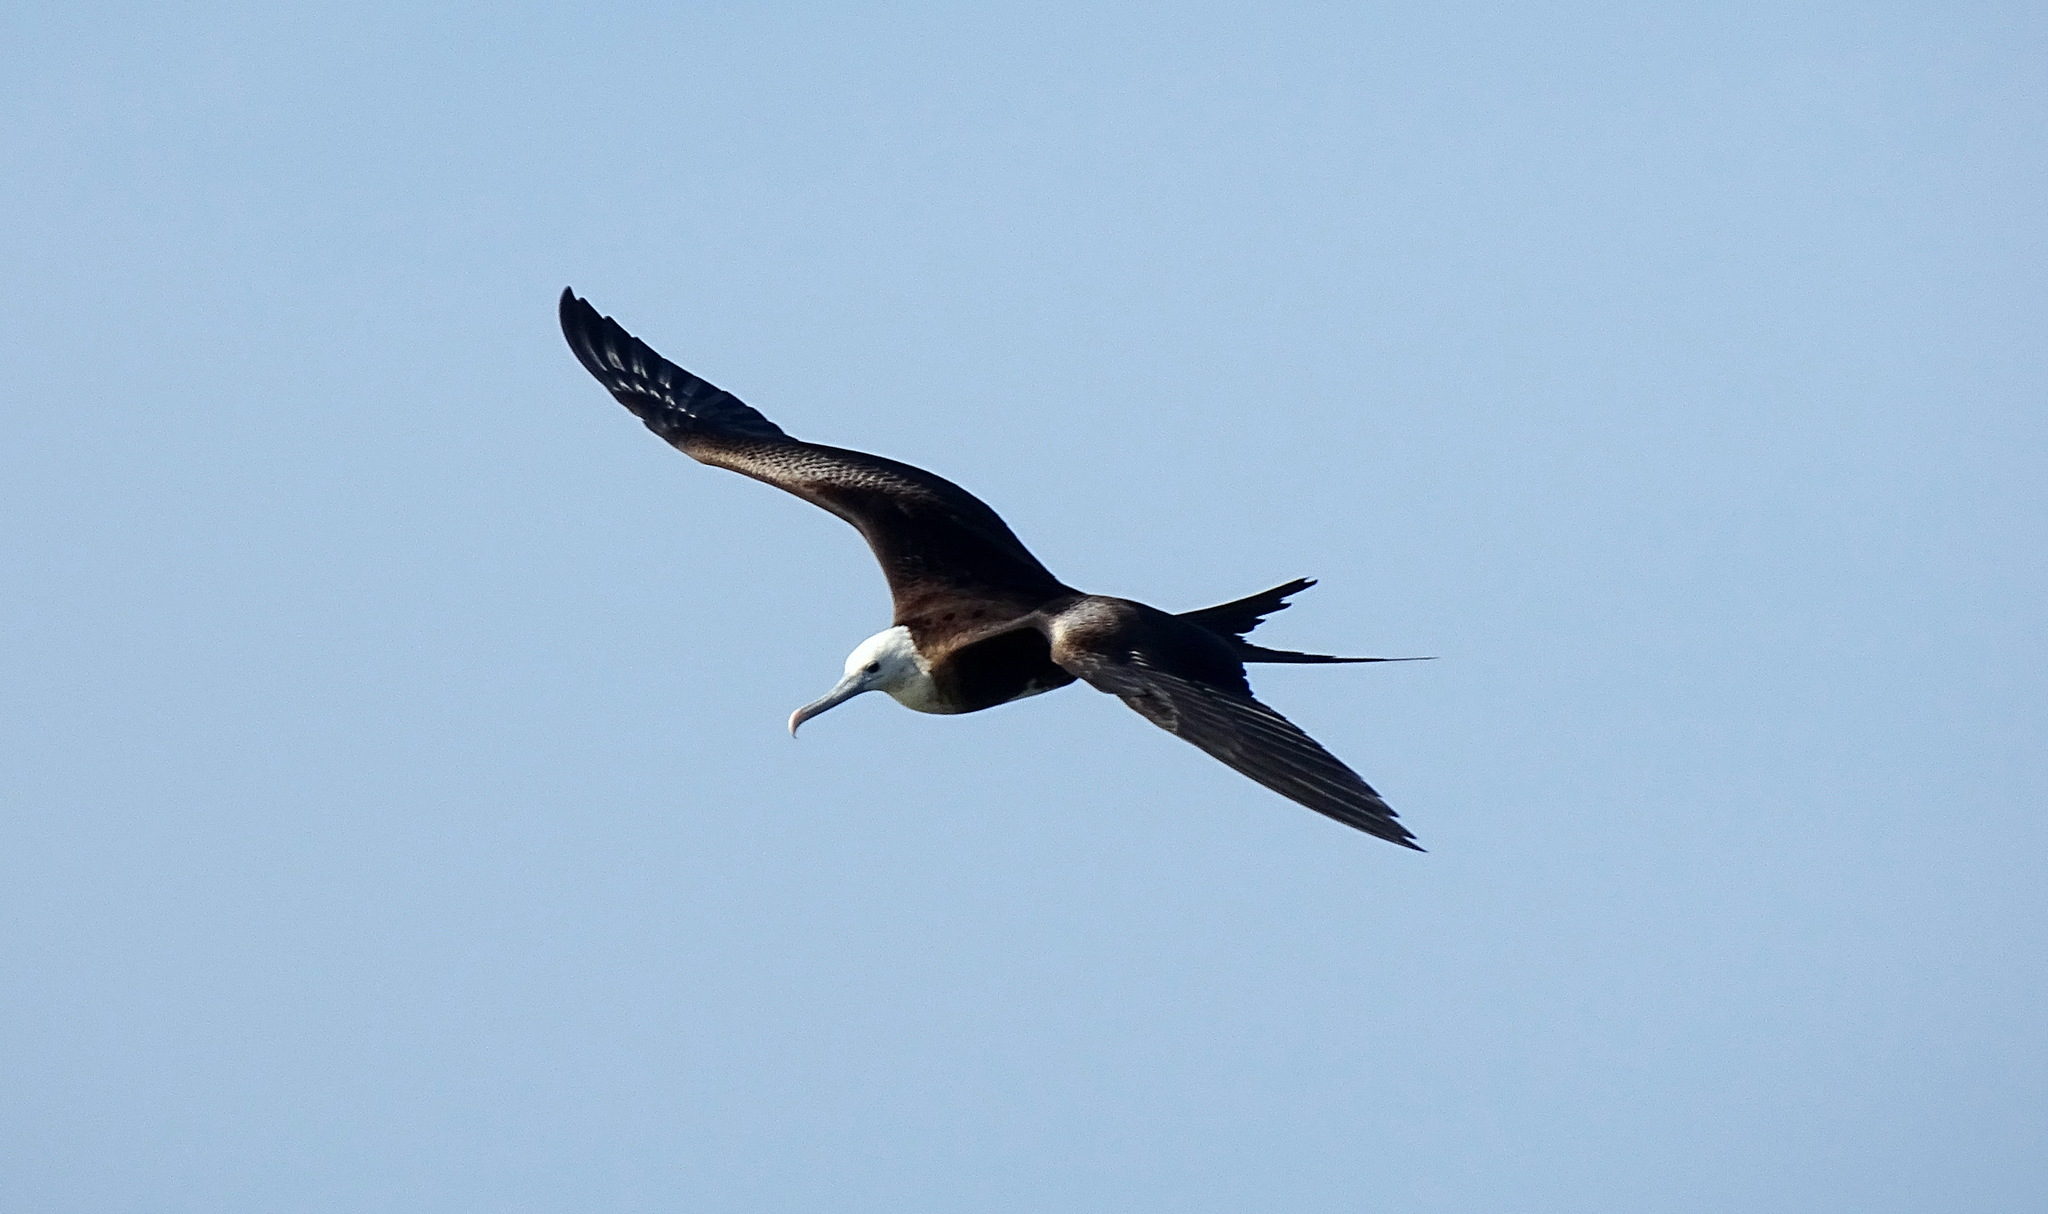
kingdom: Animalia
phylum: Chordata
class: Aves
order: Suliformes
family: Fregatidae
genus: Fregata
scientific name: Fregata magnificens
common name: Magnificent frigatebird
